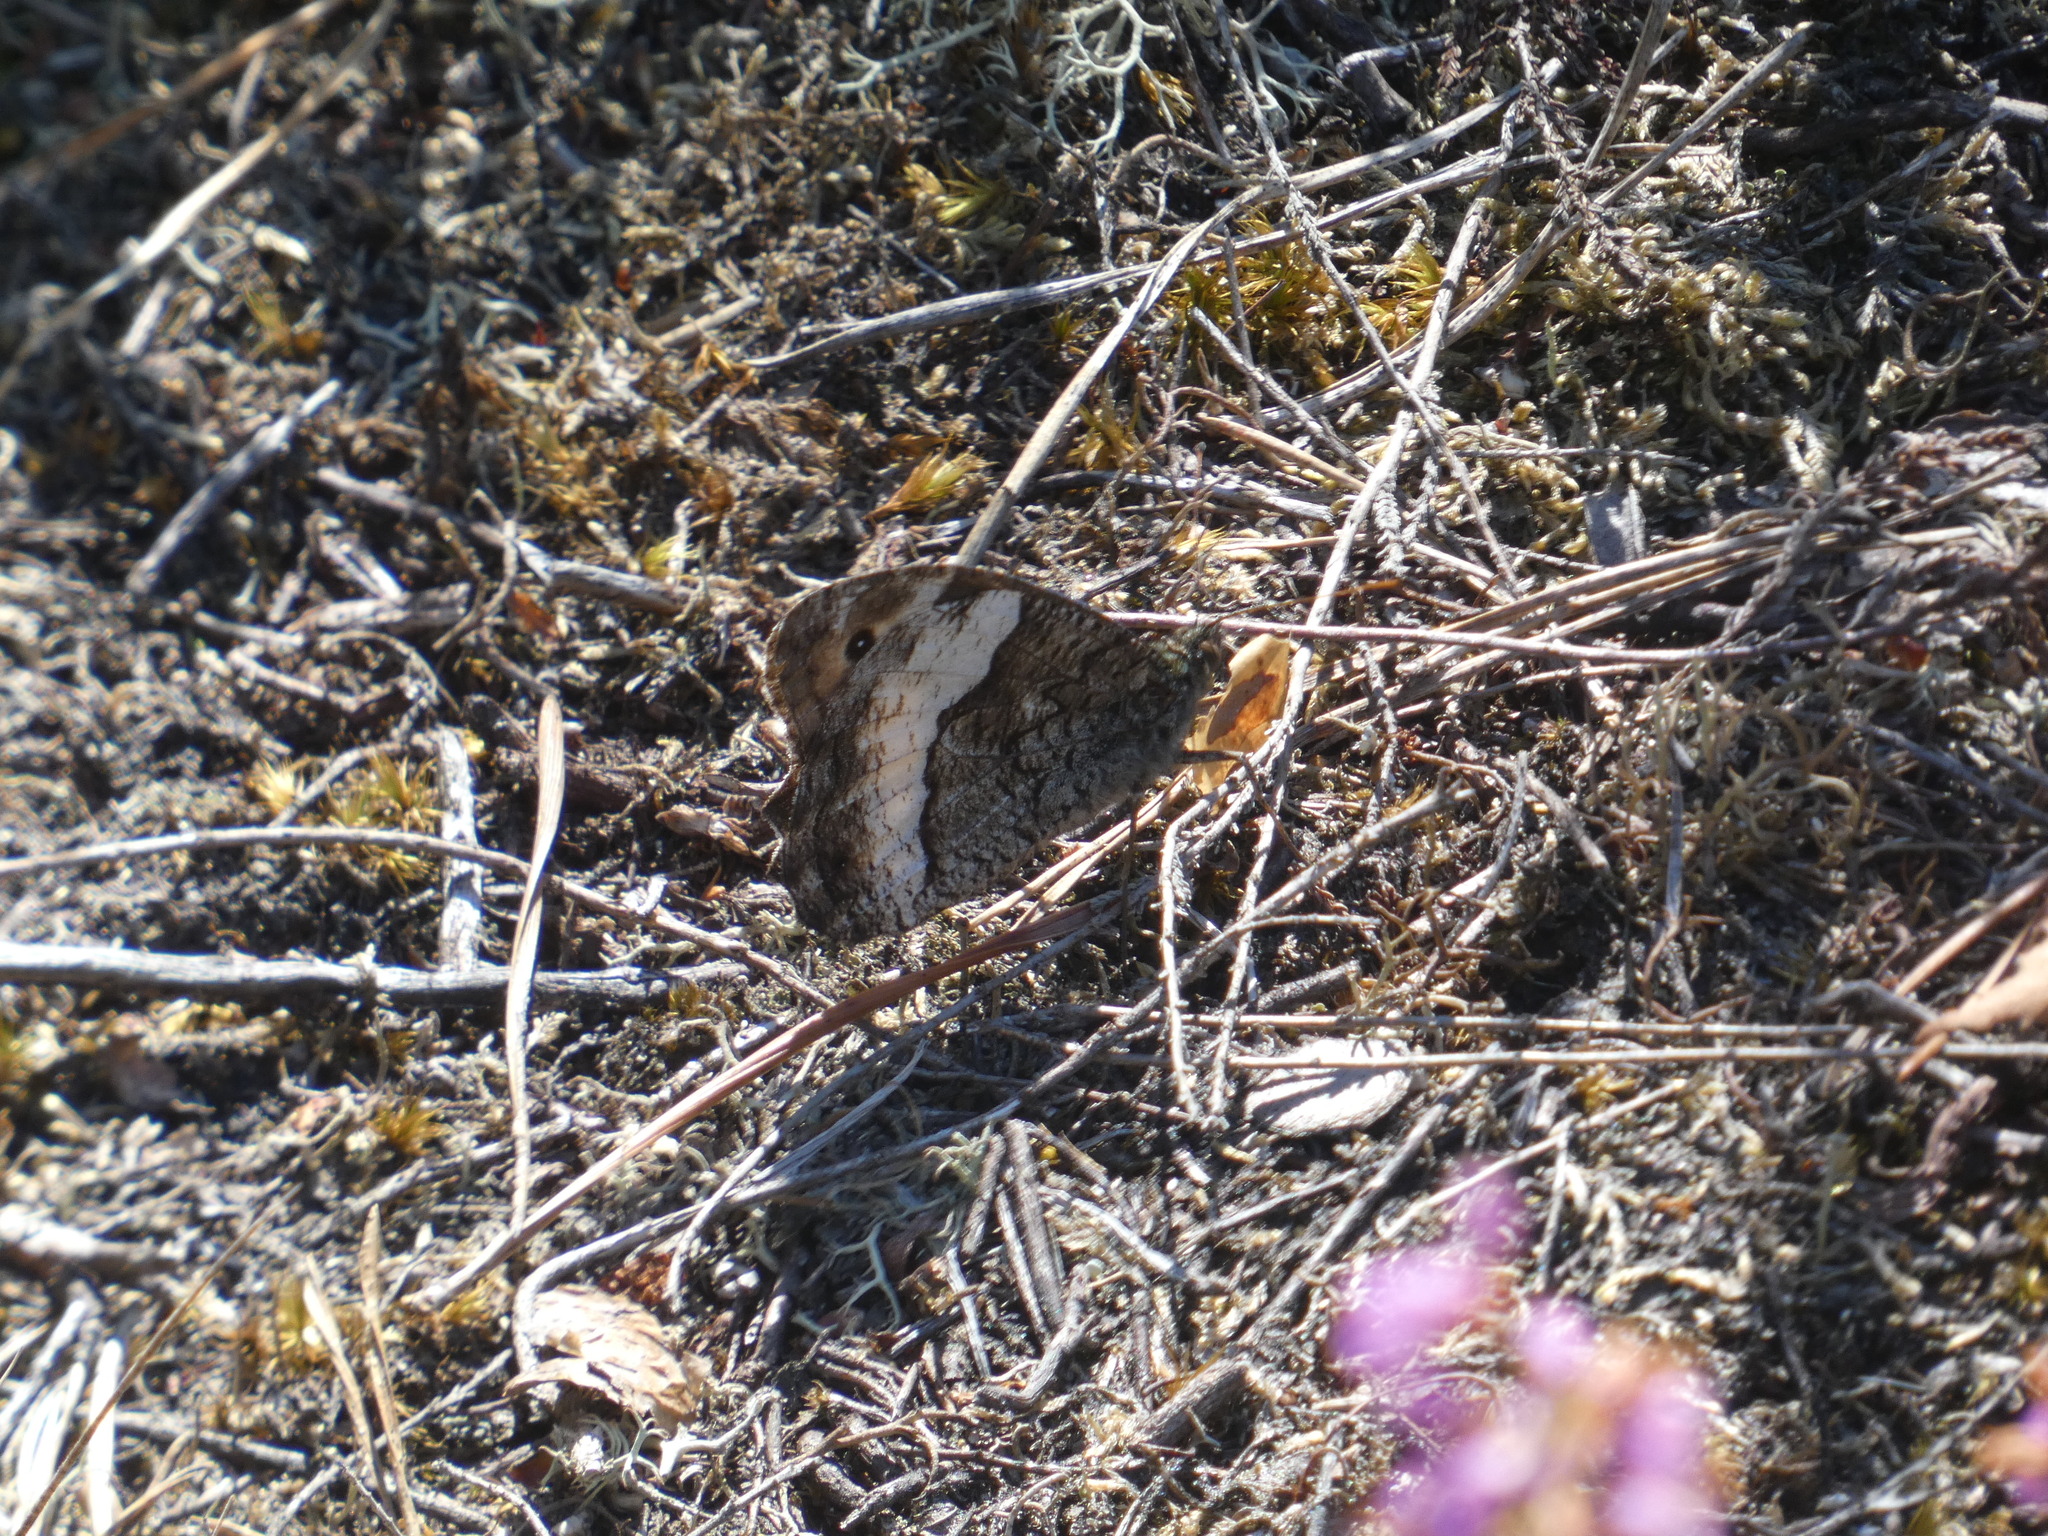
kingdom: Animalia
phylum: Arthropoda
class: Insecta
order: Lepidoptera
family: Nymphalidae
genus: Hipparchia
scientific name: Hipparchia fagi
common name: Woodland grayling
